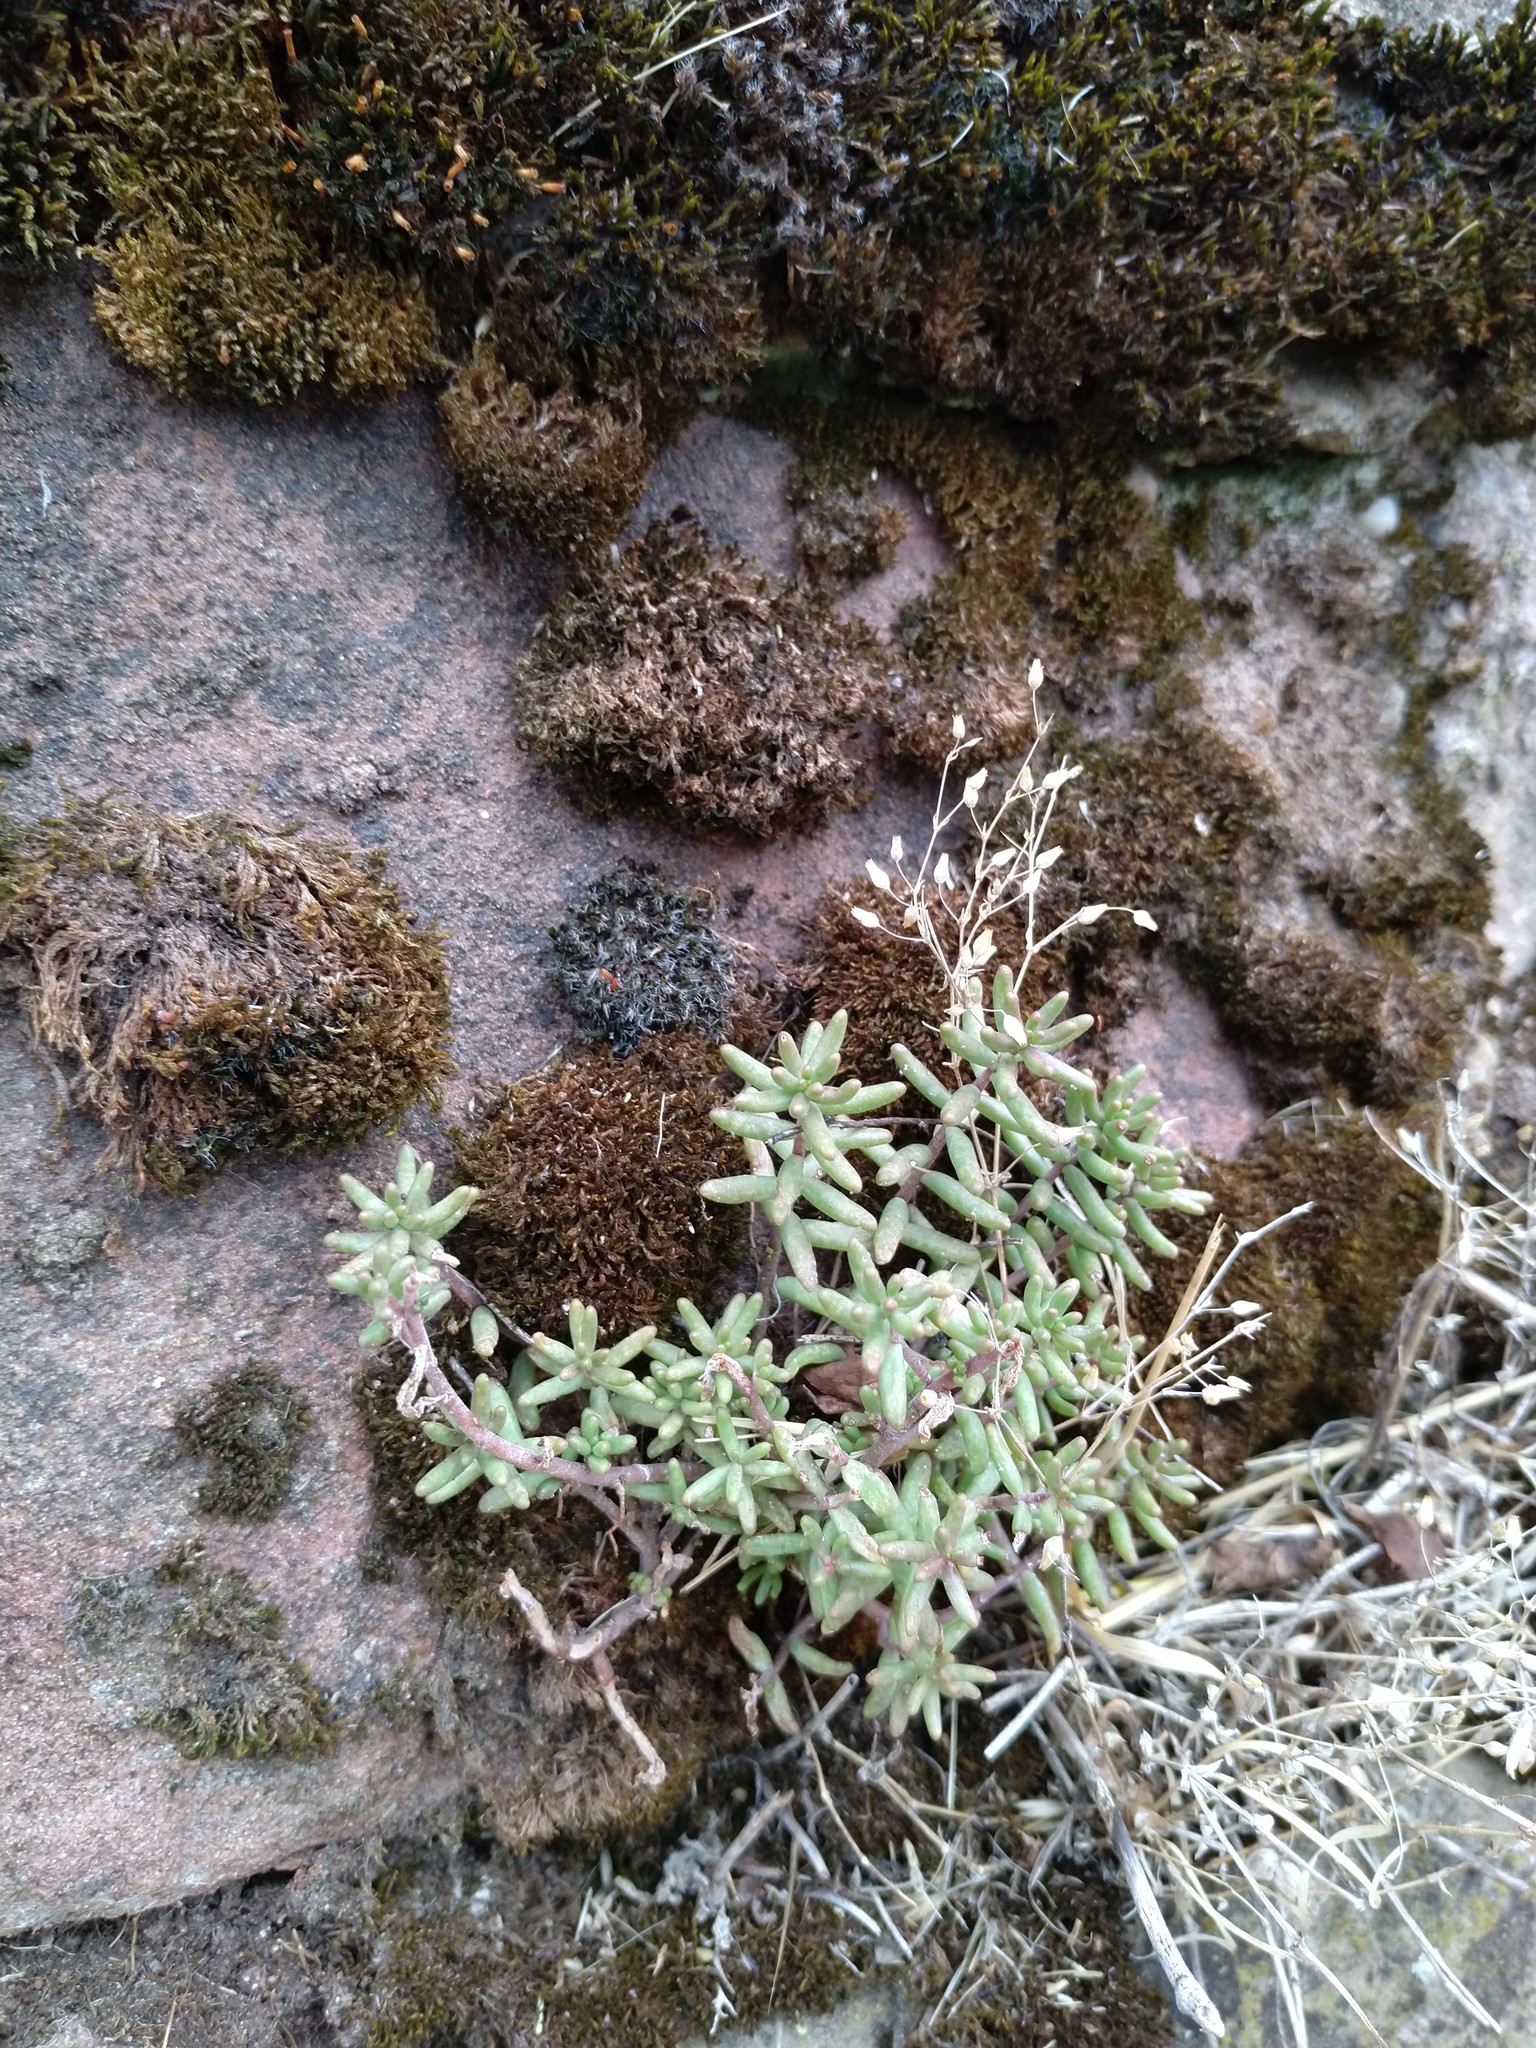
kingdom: Plantae
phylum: Tracheophyta
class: Magnoliopsida
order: Saxifragales
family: Crassulaceae
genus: Sedum
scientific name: Sedum album
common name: White stonecrop
